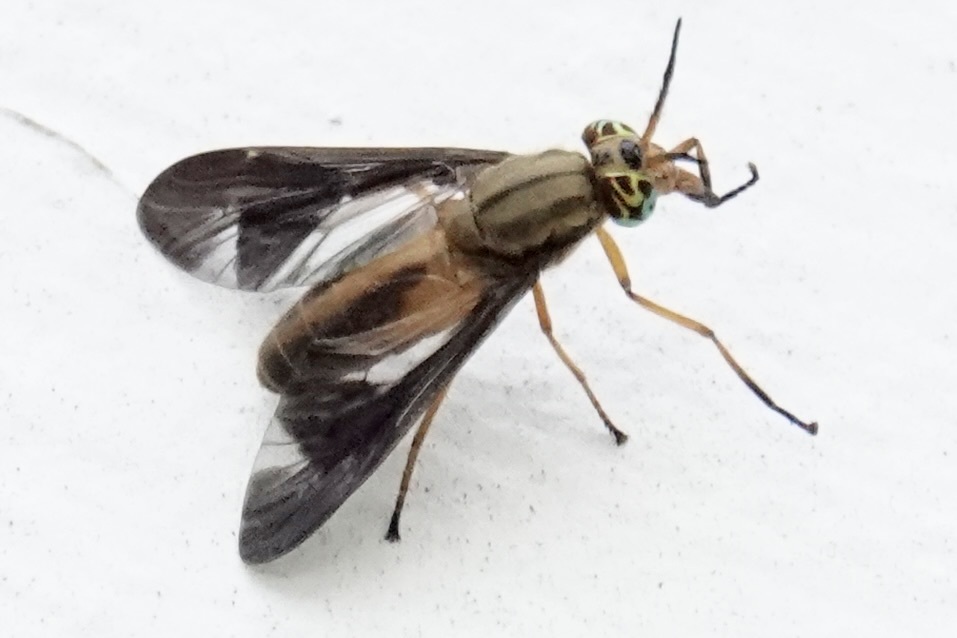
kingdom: Animalia
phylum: Arthropoda
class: Insecta
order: Diptera
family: Tabanidae
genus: Chrysops
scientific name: Chrysops macquarti
